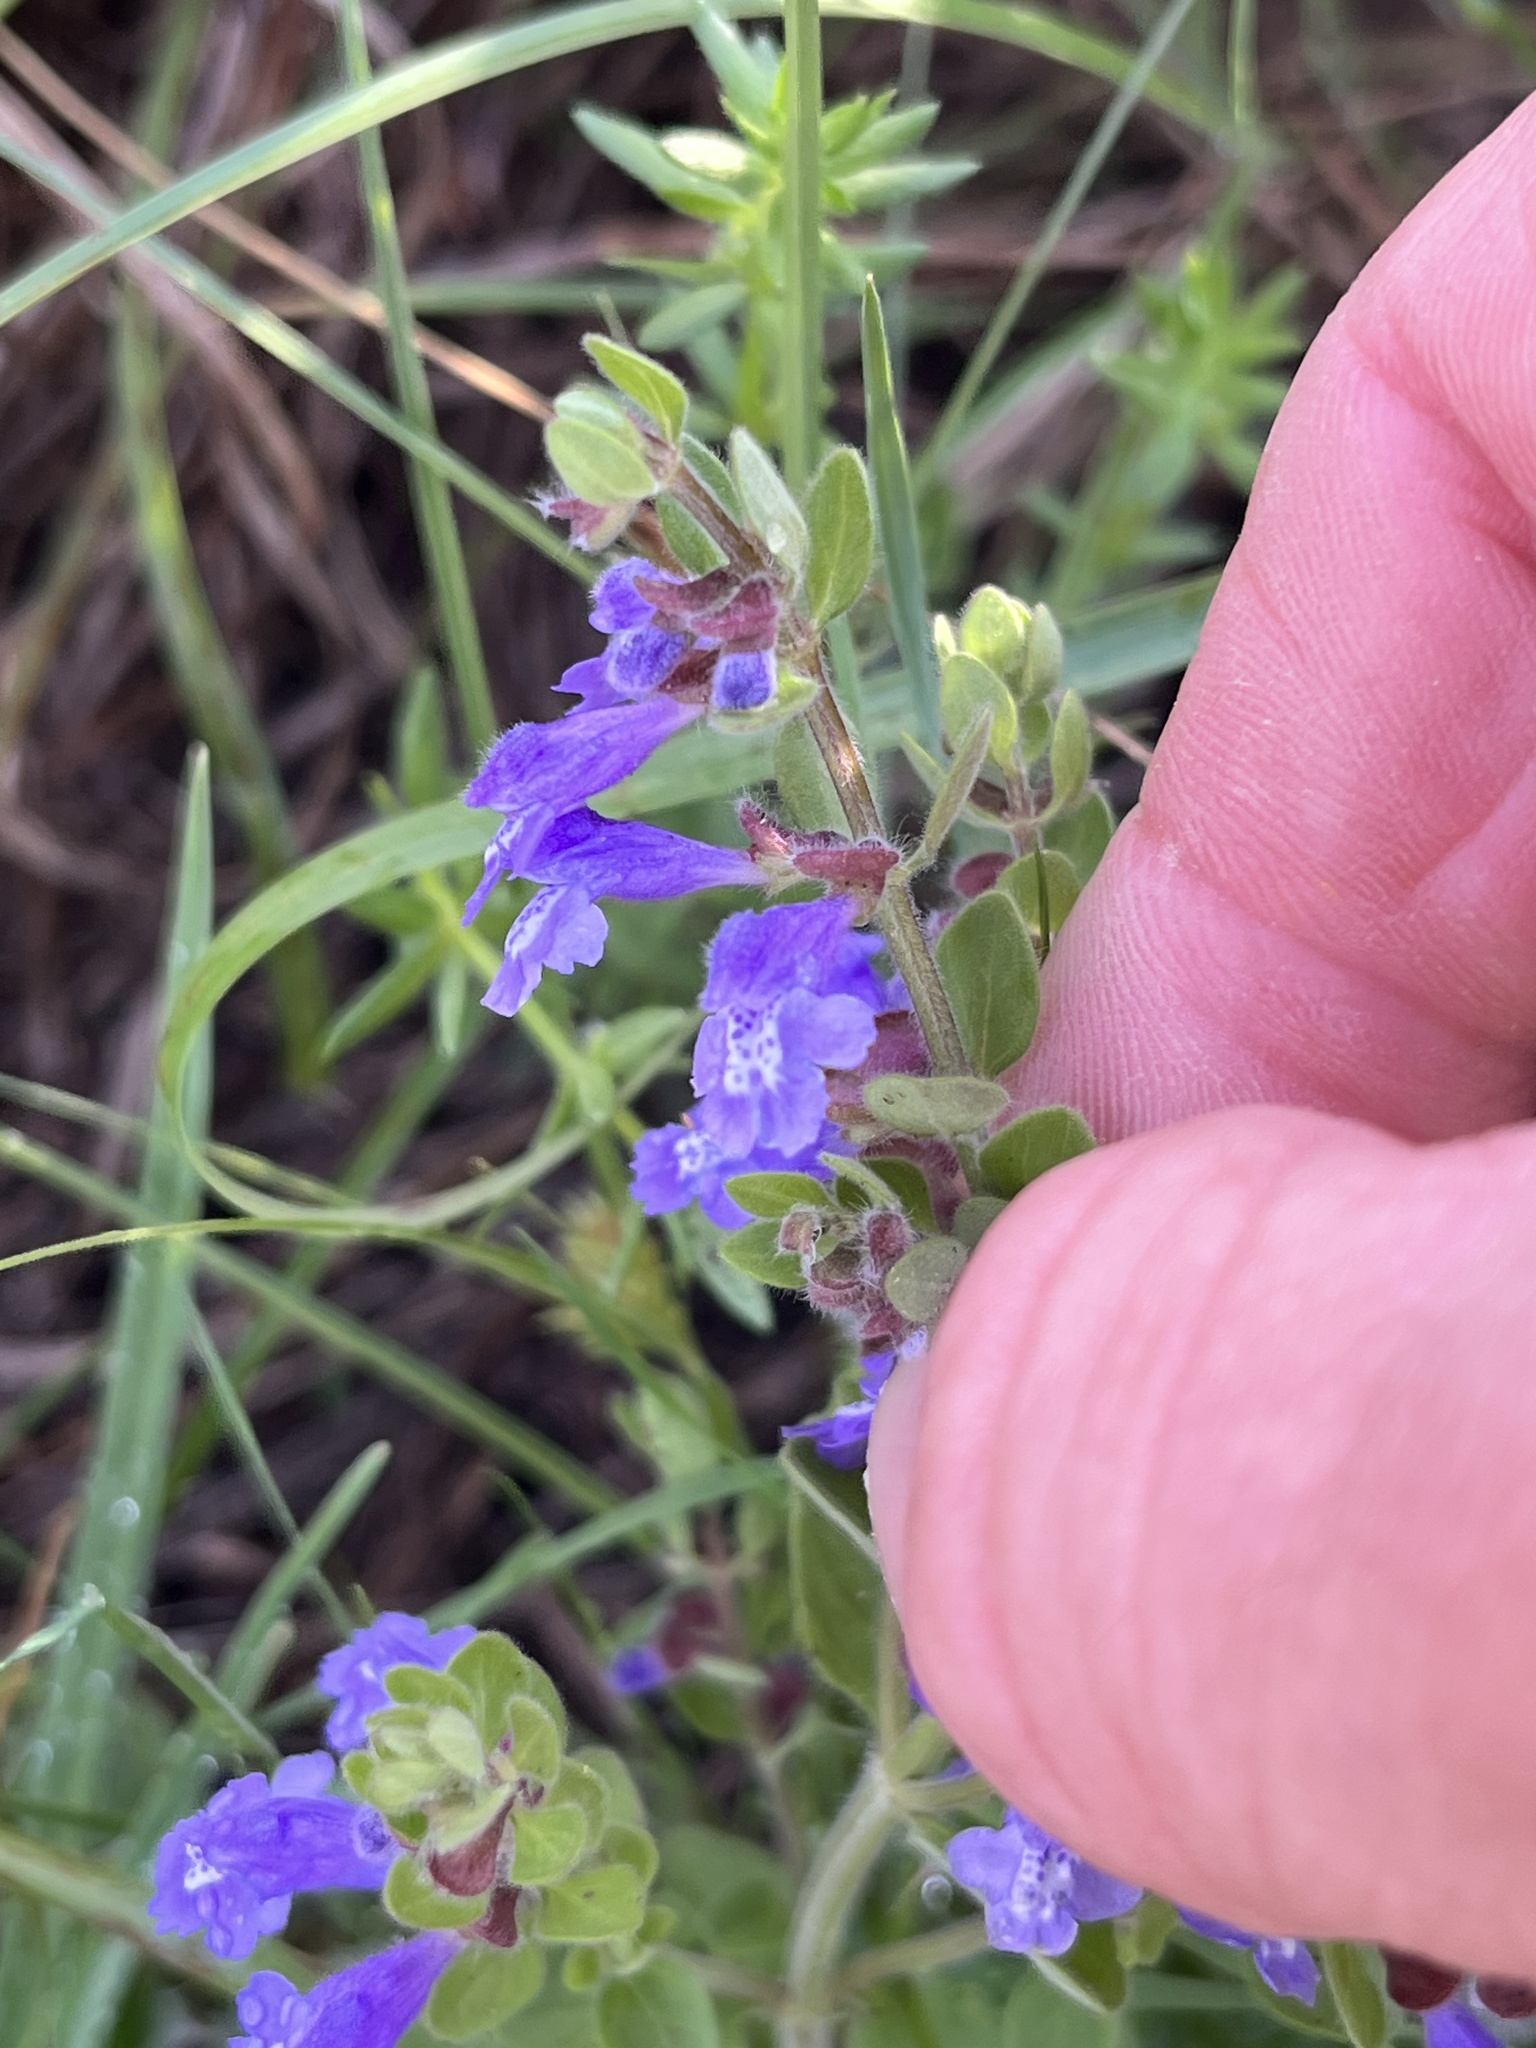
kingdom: Plantae
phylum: Tracheophyta
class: Magnoliopsida
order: Lamiales
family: Lamiaceae
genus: Scutellaria
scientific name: Scutellaria drummondii
